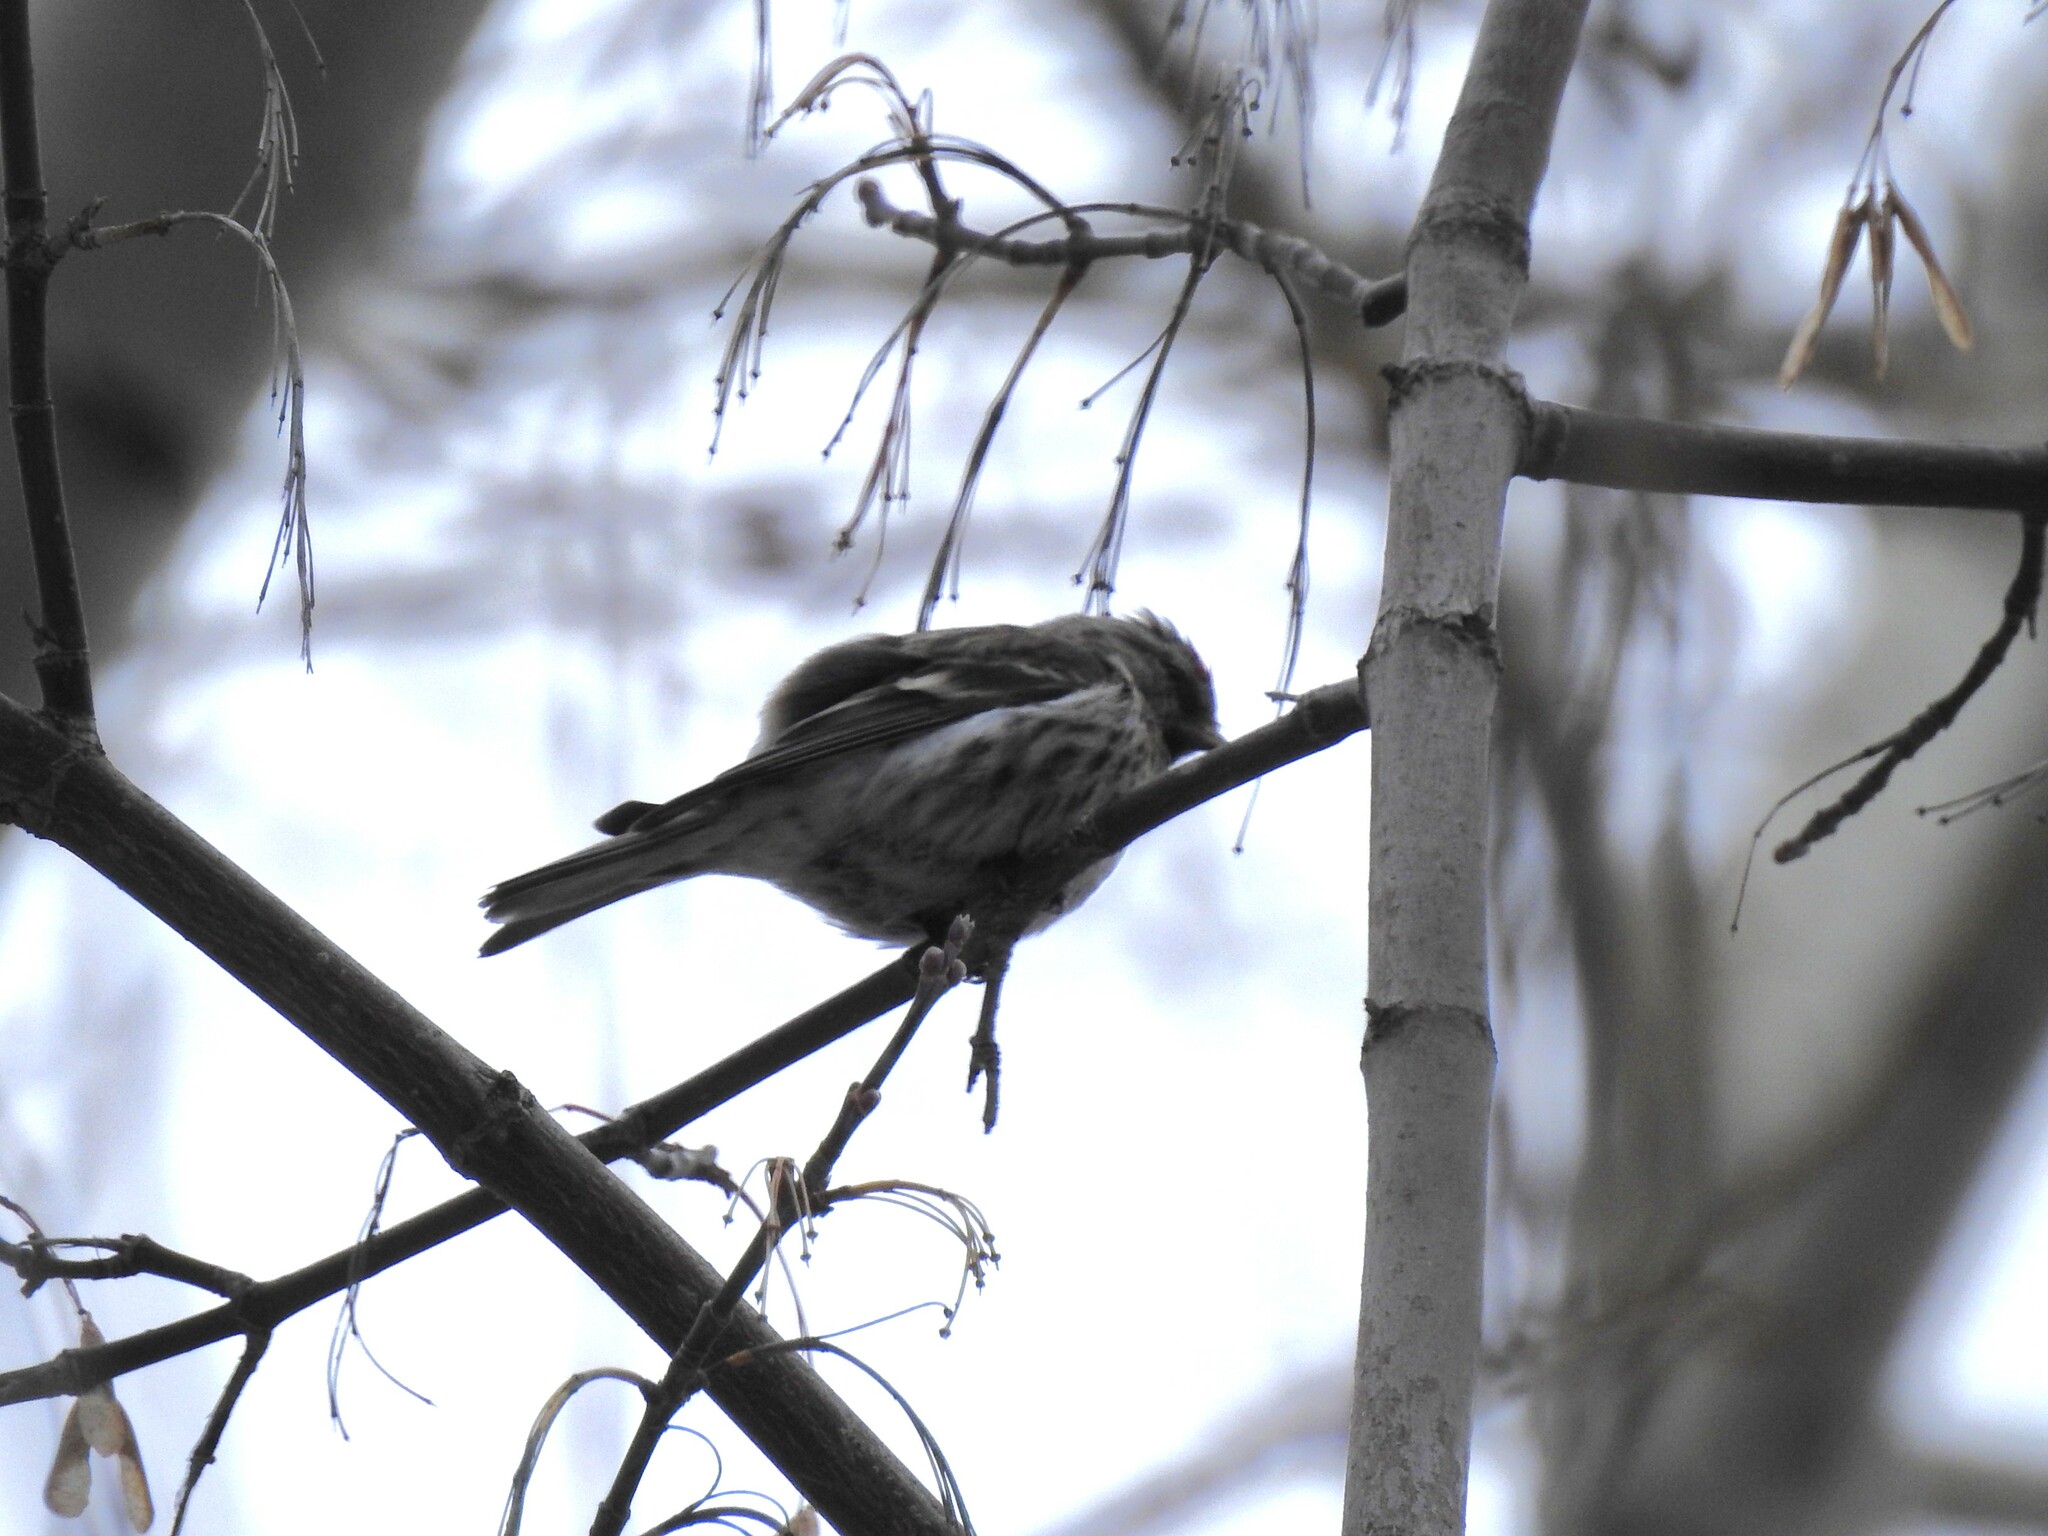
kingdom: Animalia
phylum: Chordata
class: Aves
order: Passeriformes
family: Fringillidae
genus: Acanthis
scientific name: Acanthis flammea
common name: Common redpoll
